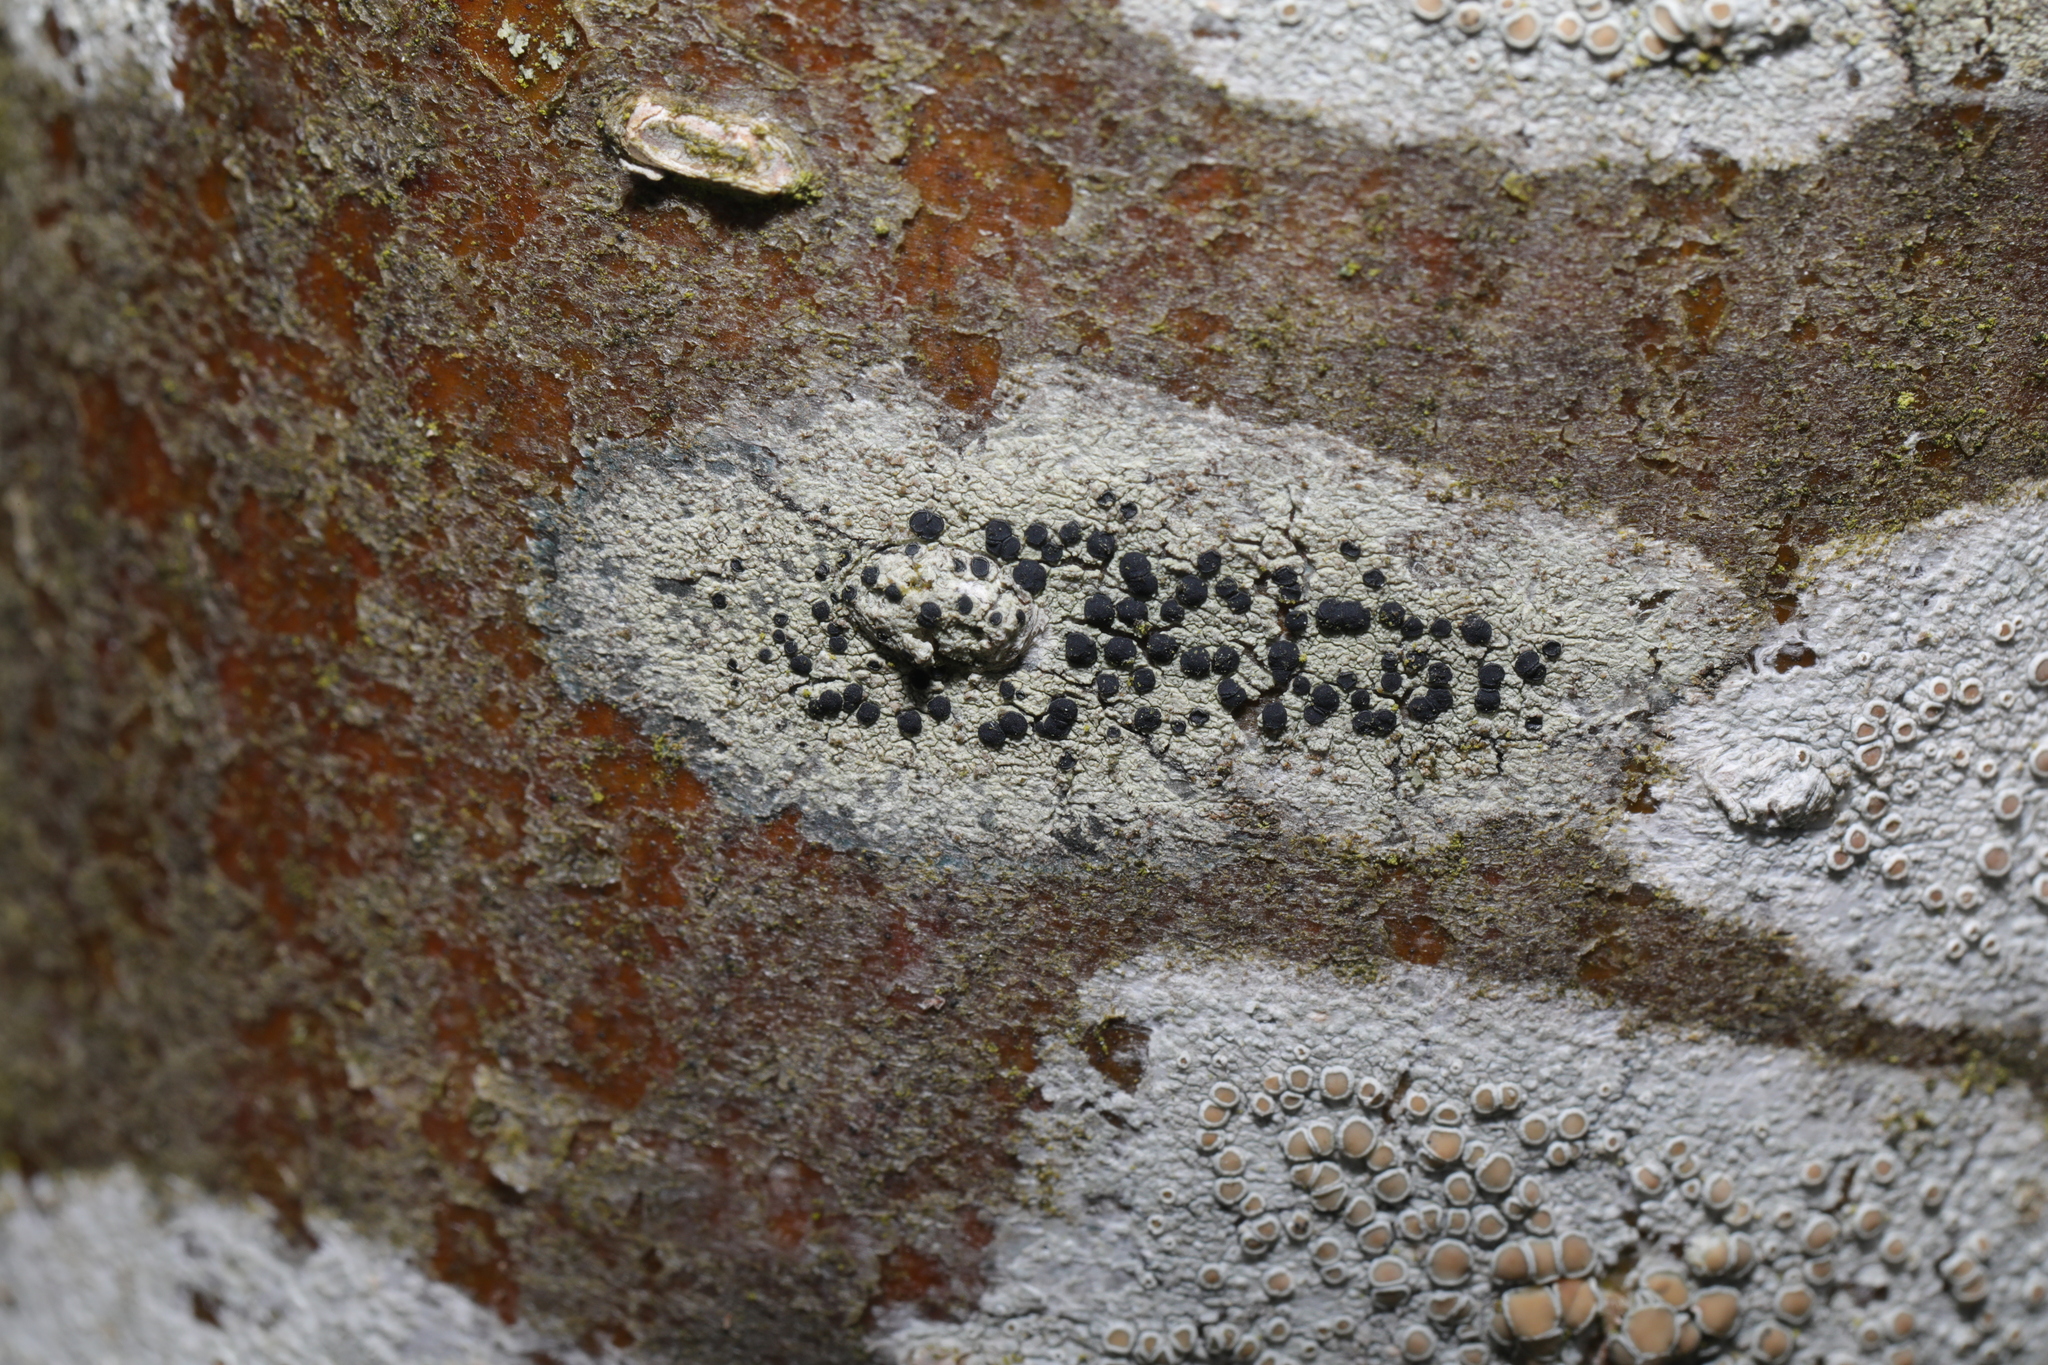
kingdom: Fungi
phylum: Ascomycota
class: Lecanoromycetes
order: Lecanorales
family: Lecanoraceae
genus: Lecidella
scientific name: Lecidella elaeochroma
